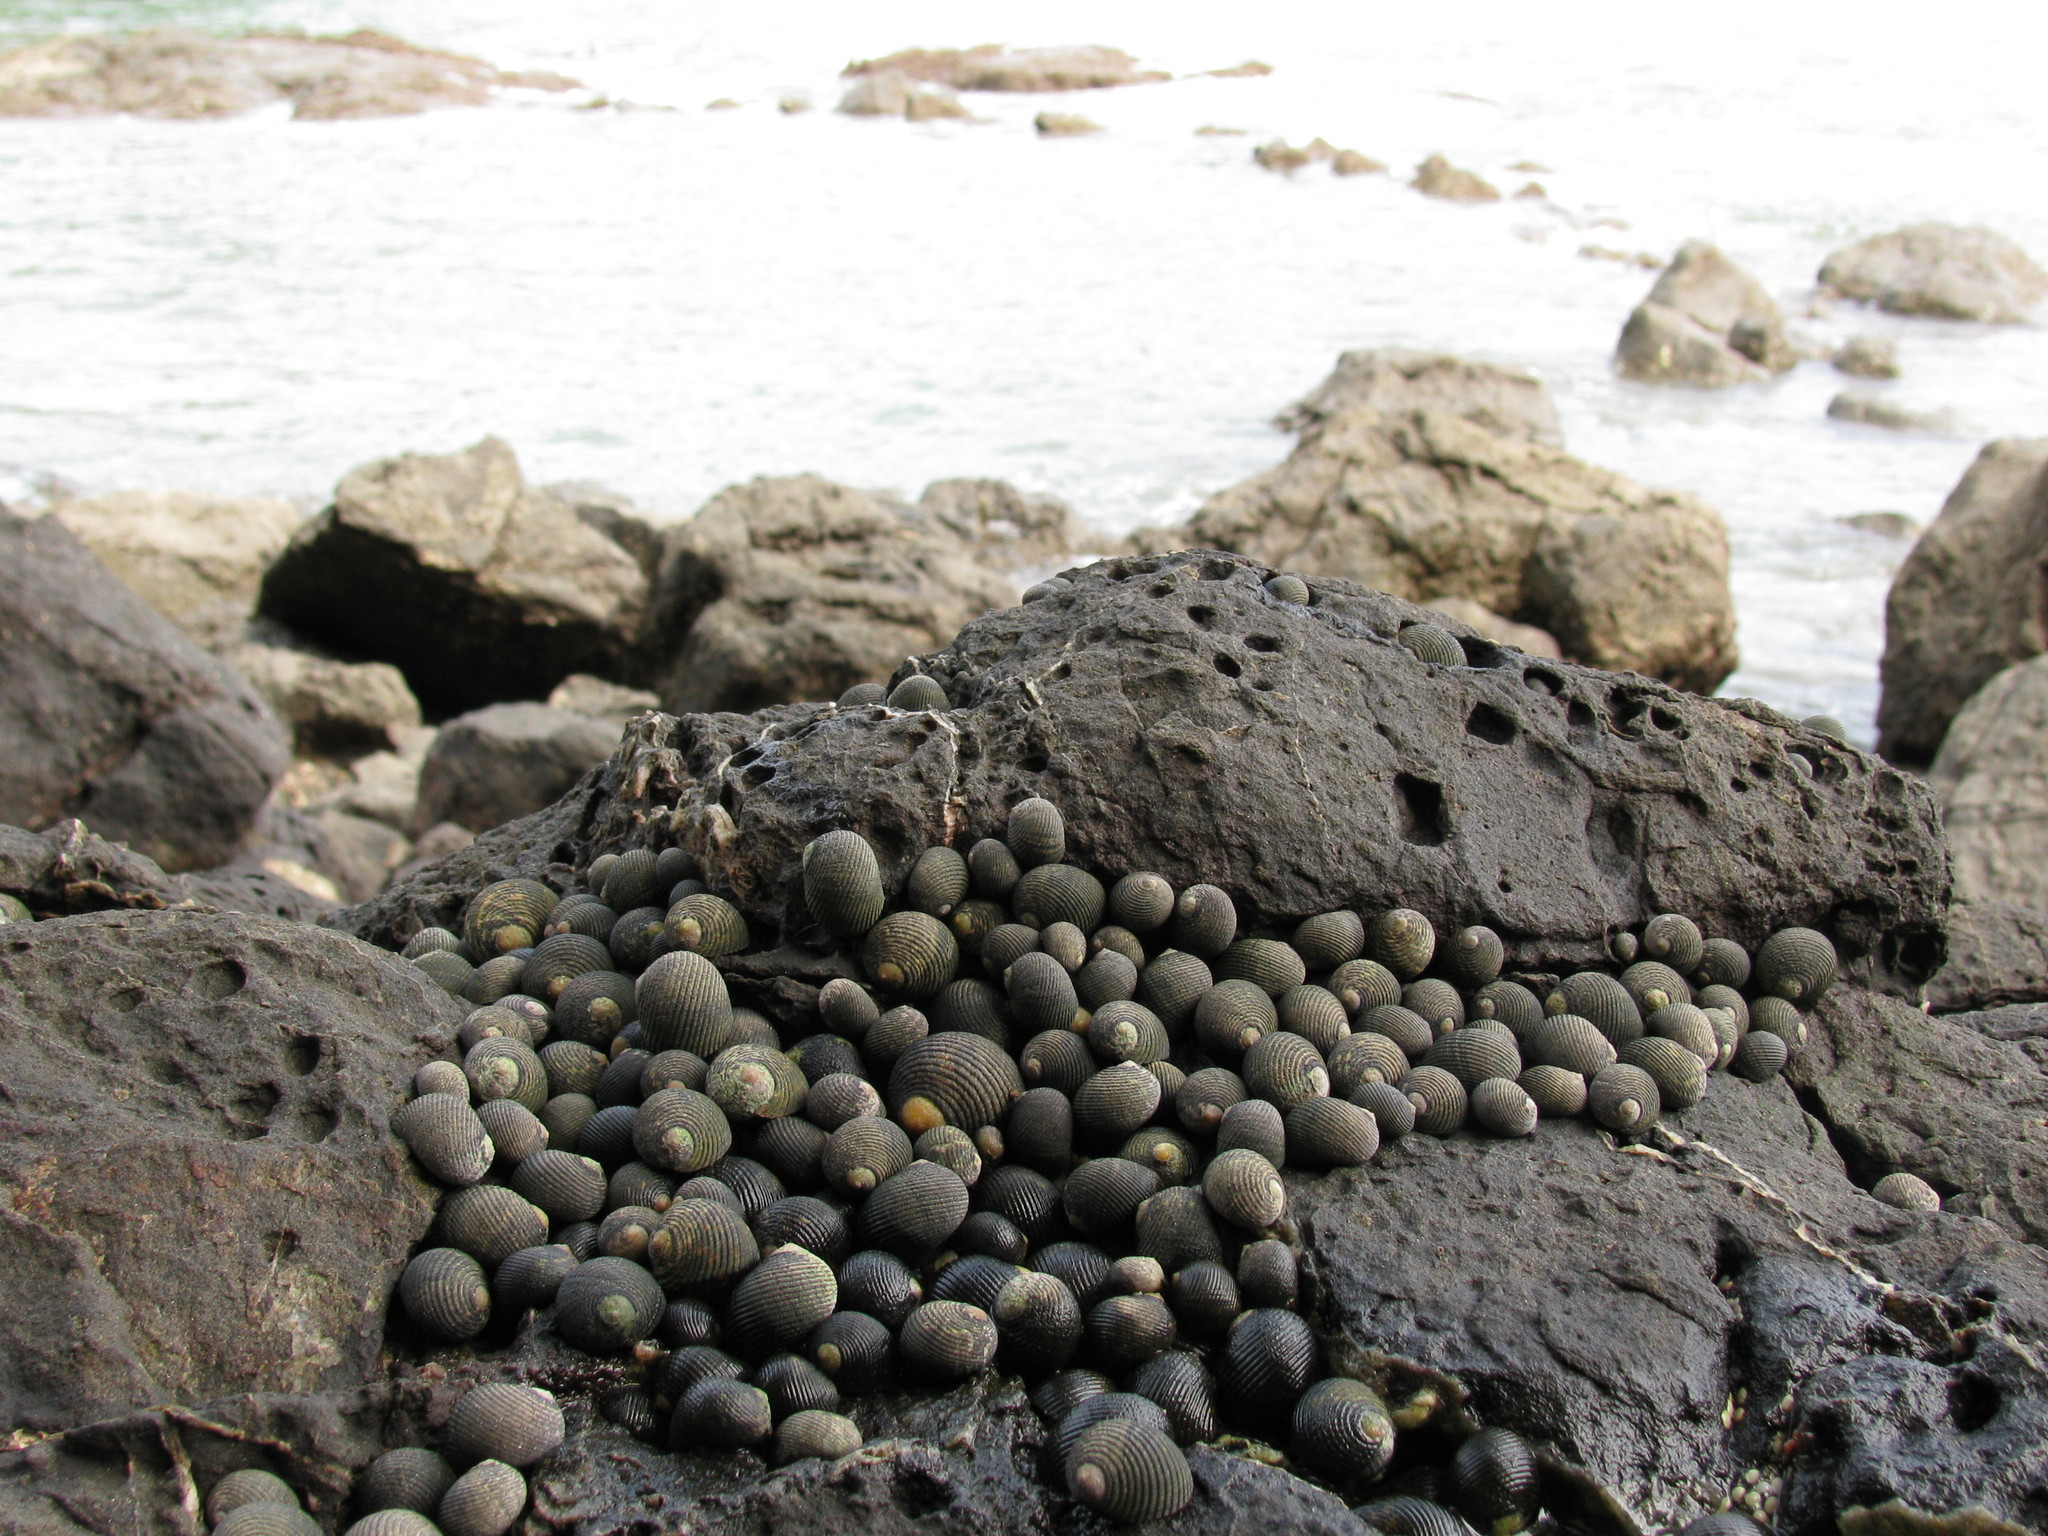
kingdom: Animalia
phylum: Mollusca
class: Gastropoda
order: Cycloneritida
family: Neritidae
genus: Nerita
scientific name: Nerita scabricosta
